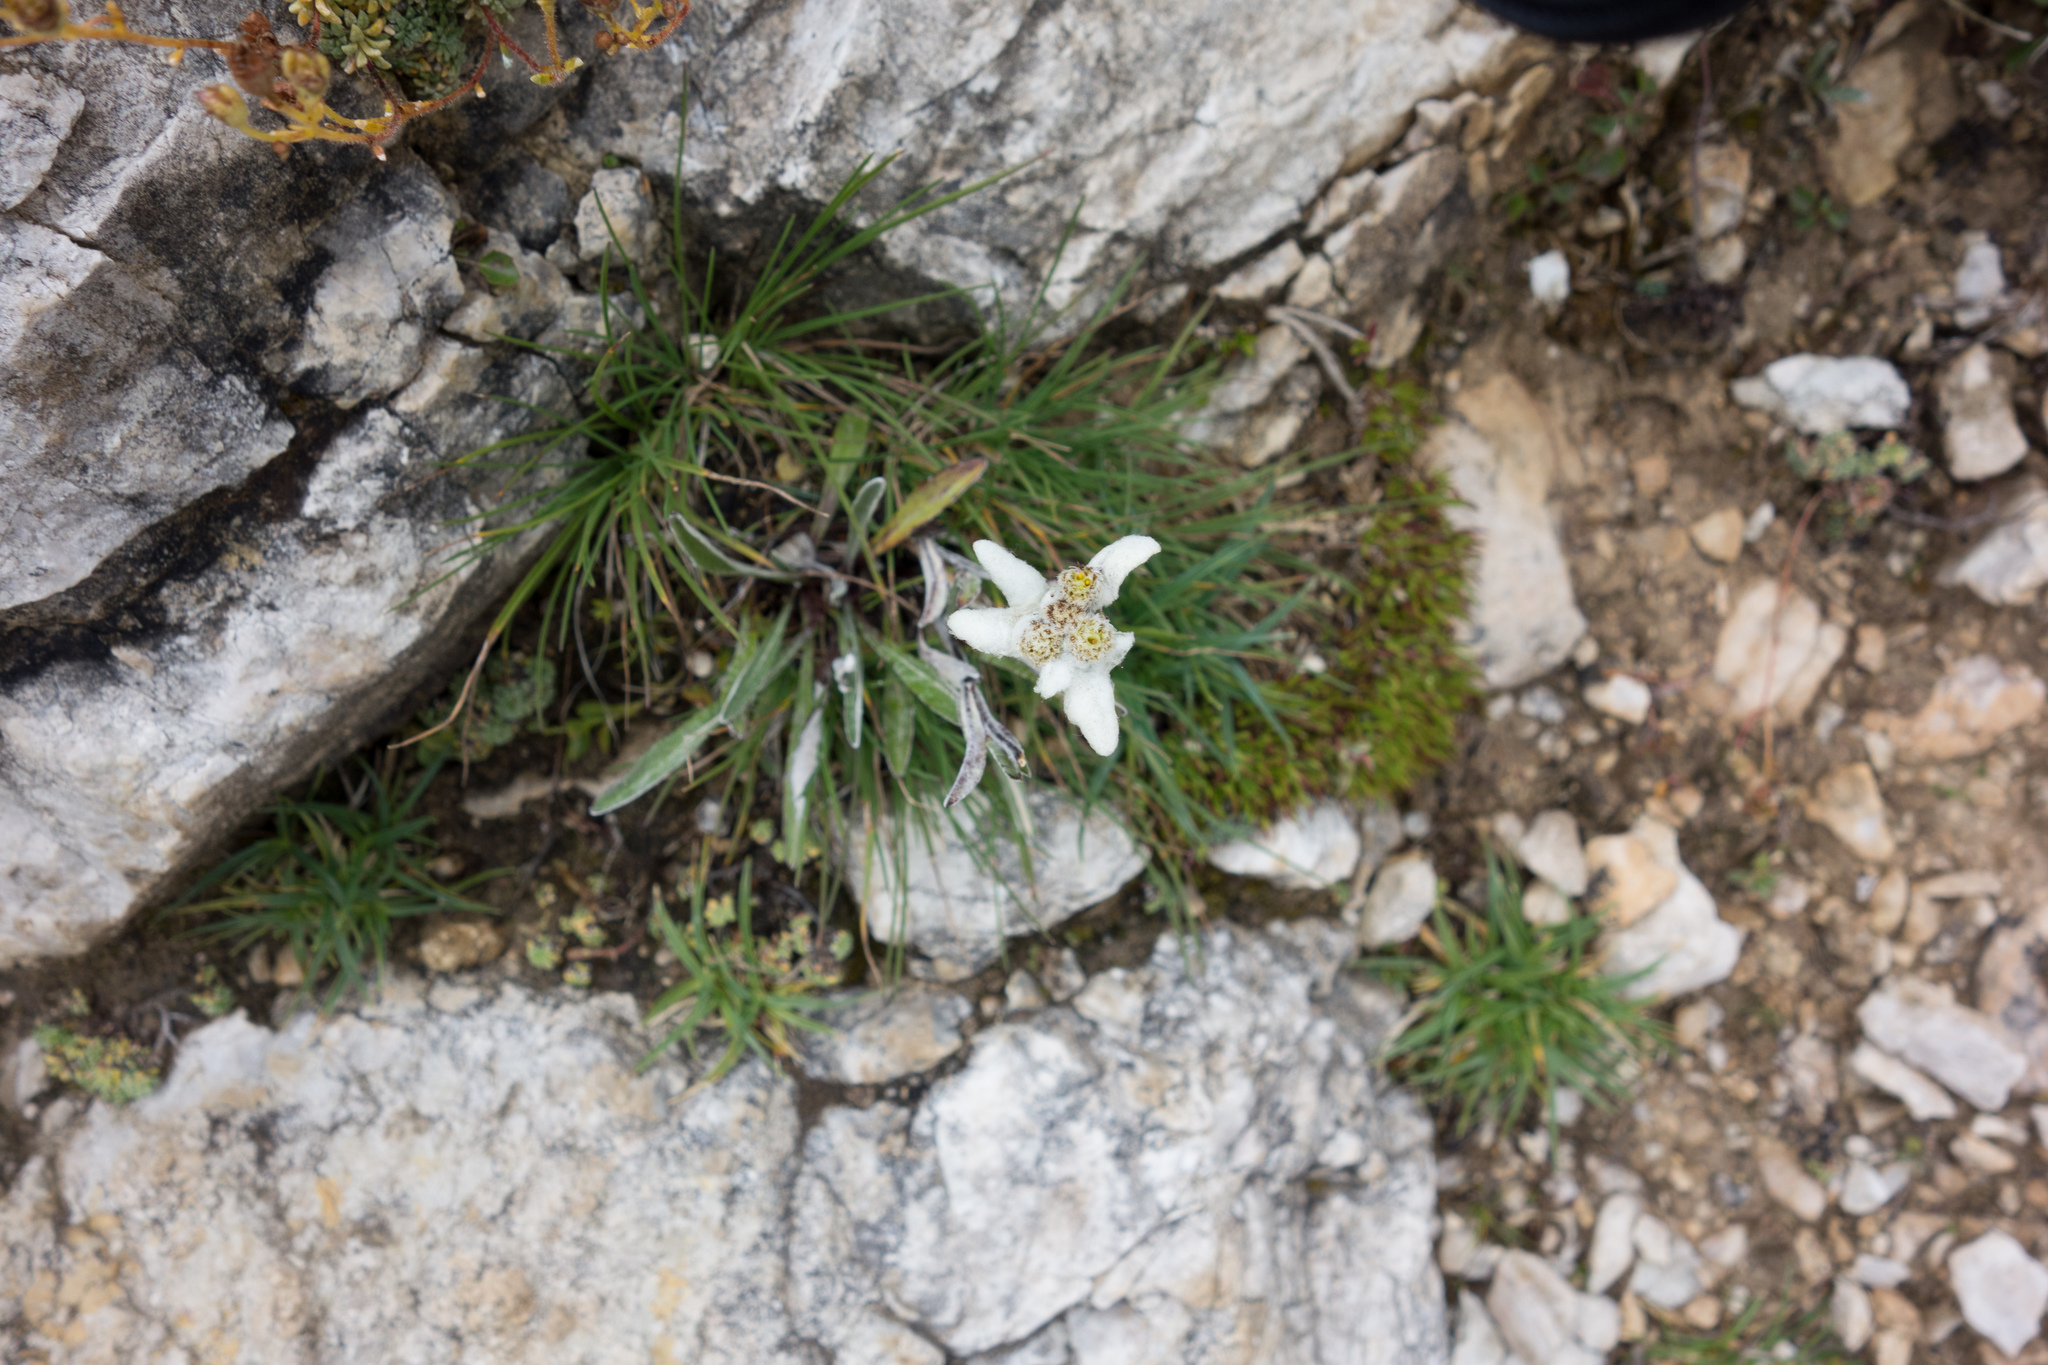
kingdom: Plantae
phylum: Tracheophyta
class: Magnoliopsida
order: Asterales
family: Asteraceae
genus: Leontopodium
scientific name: Leontopodium nivale
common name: Edelweiss
